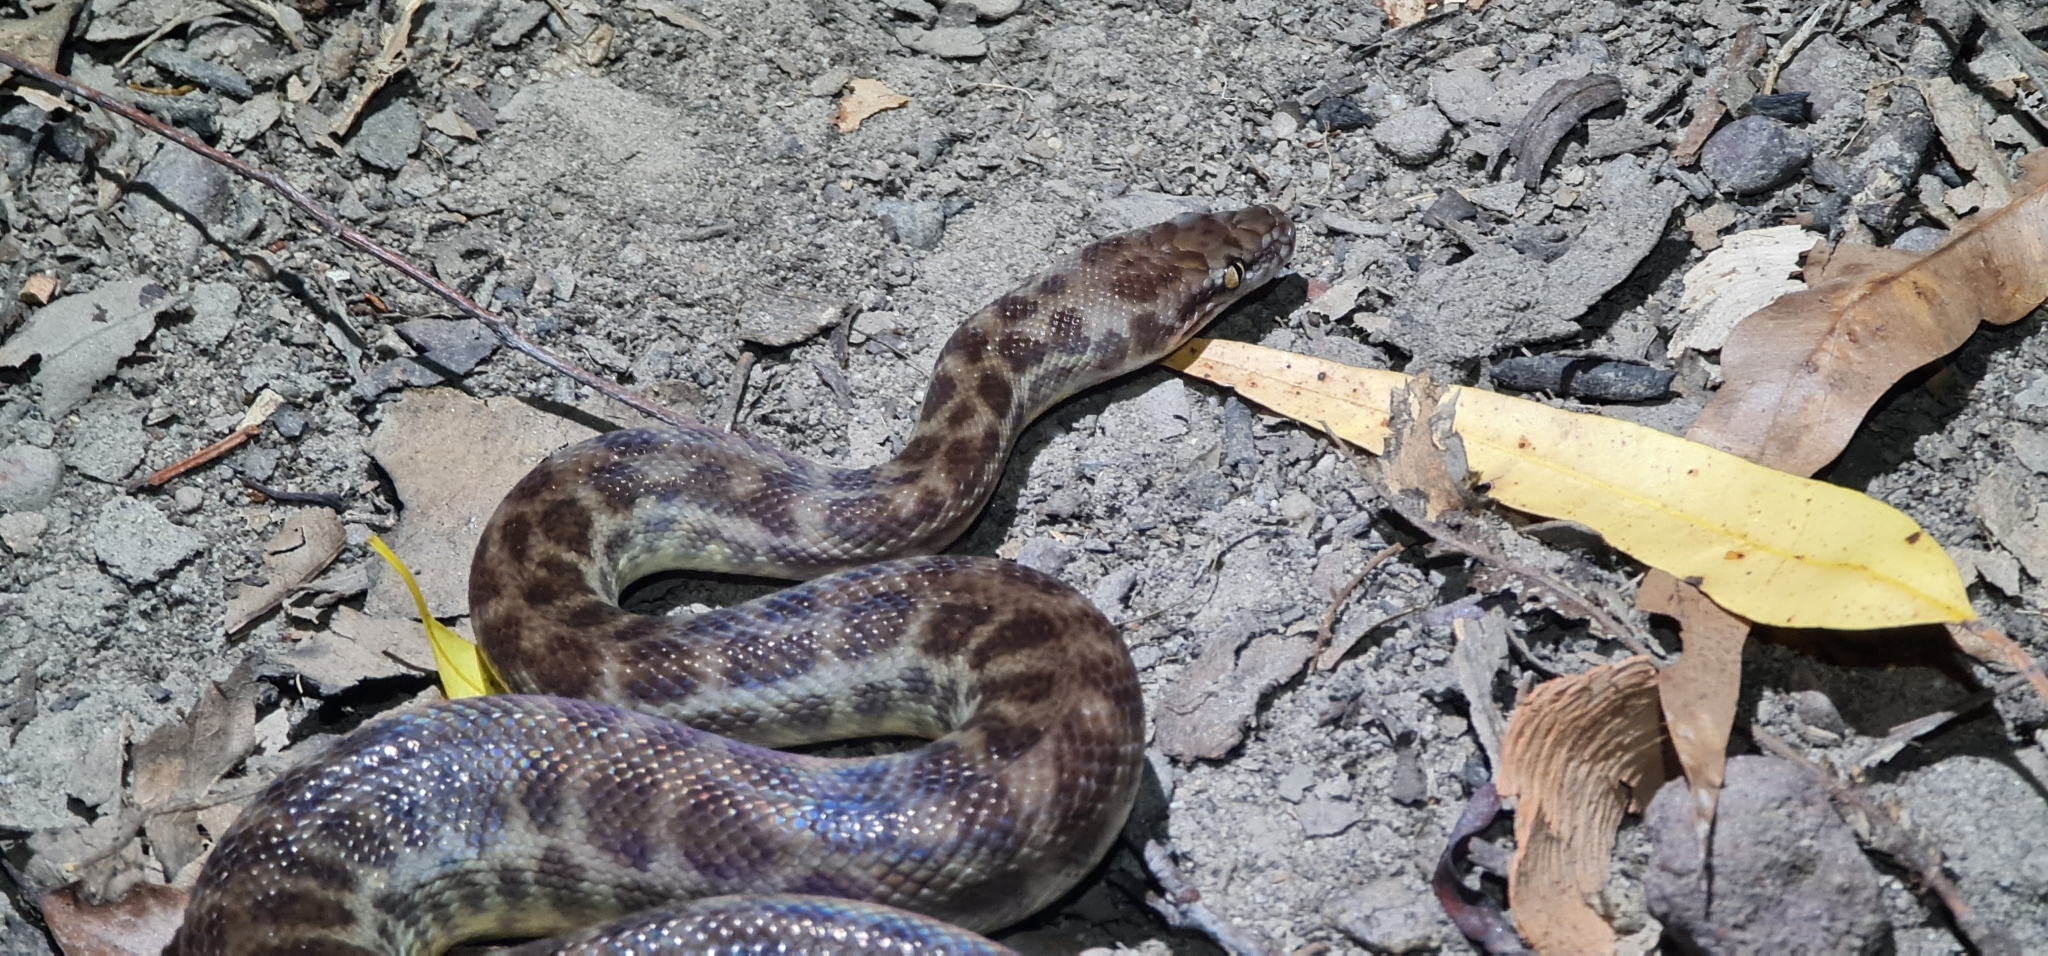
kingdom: Animalia
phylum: Chordata
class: Squamata
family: Pythonidae
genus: Antaresia
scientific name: Antaresia childreni
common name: Children's python
